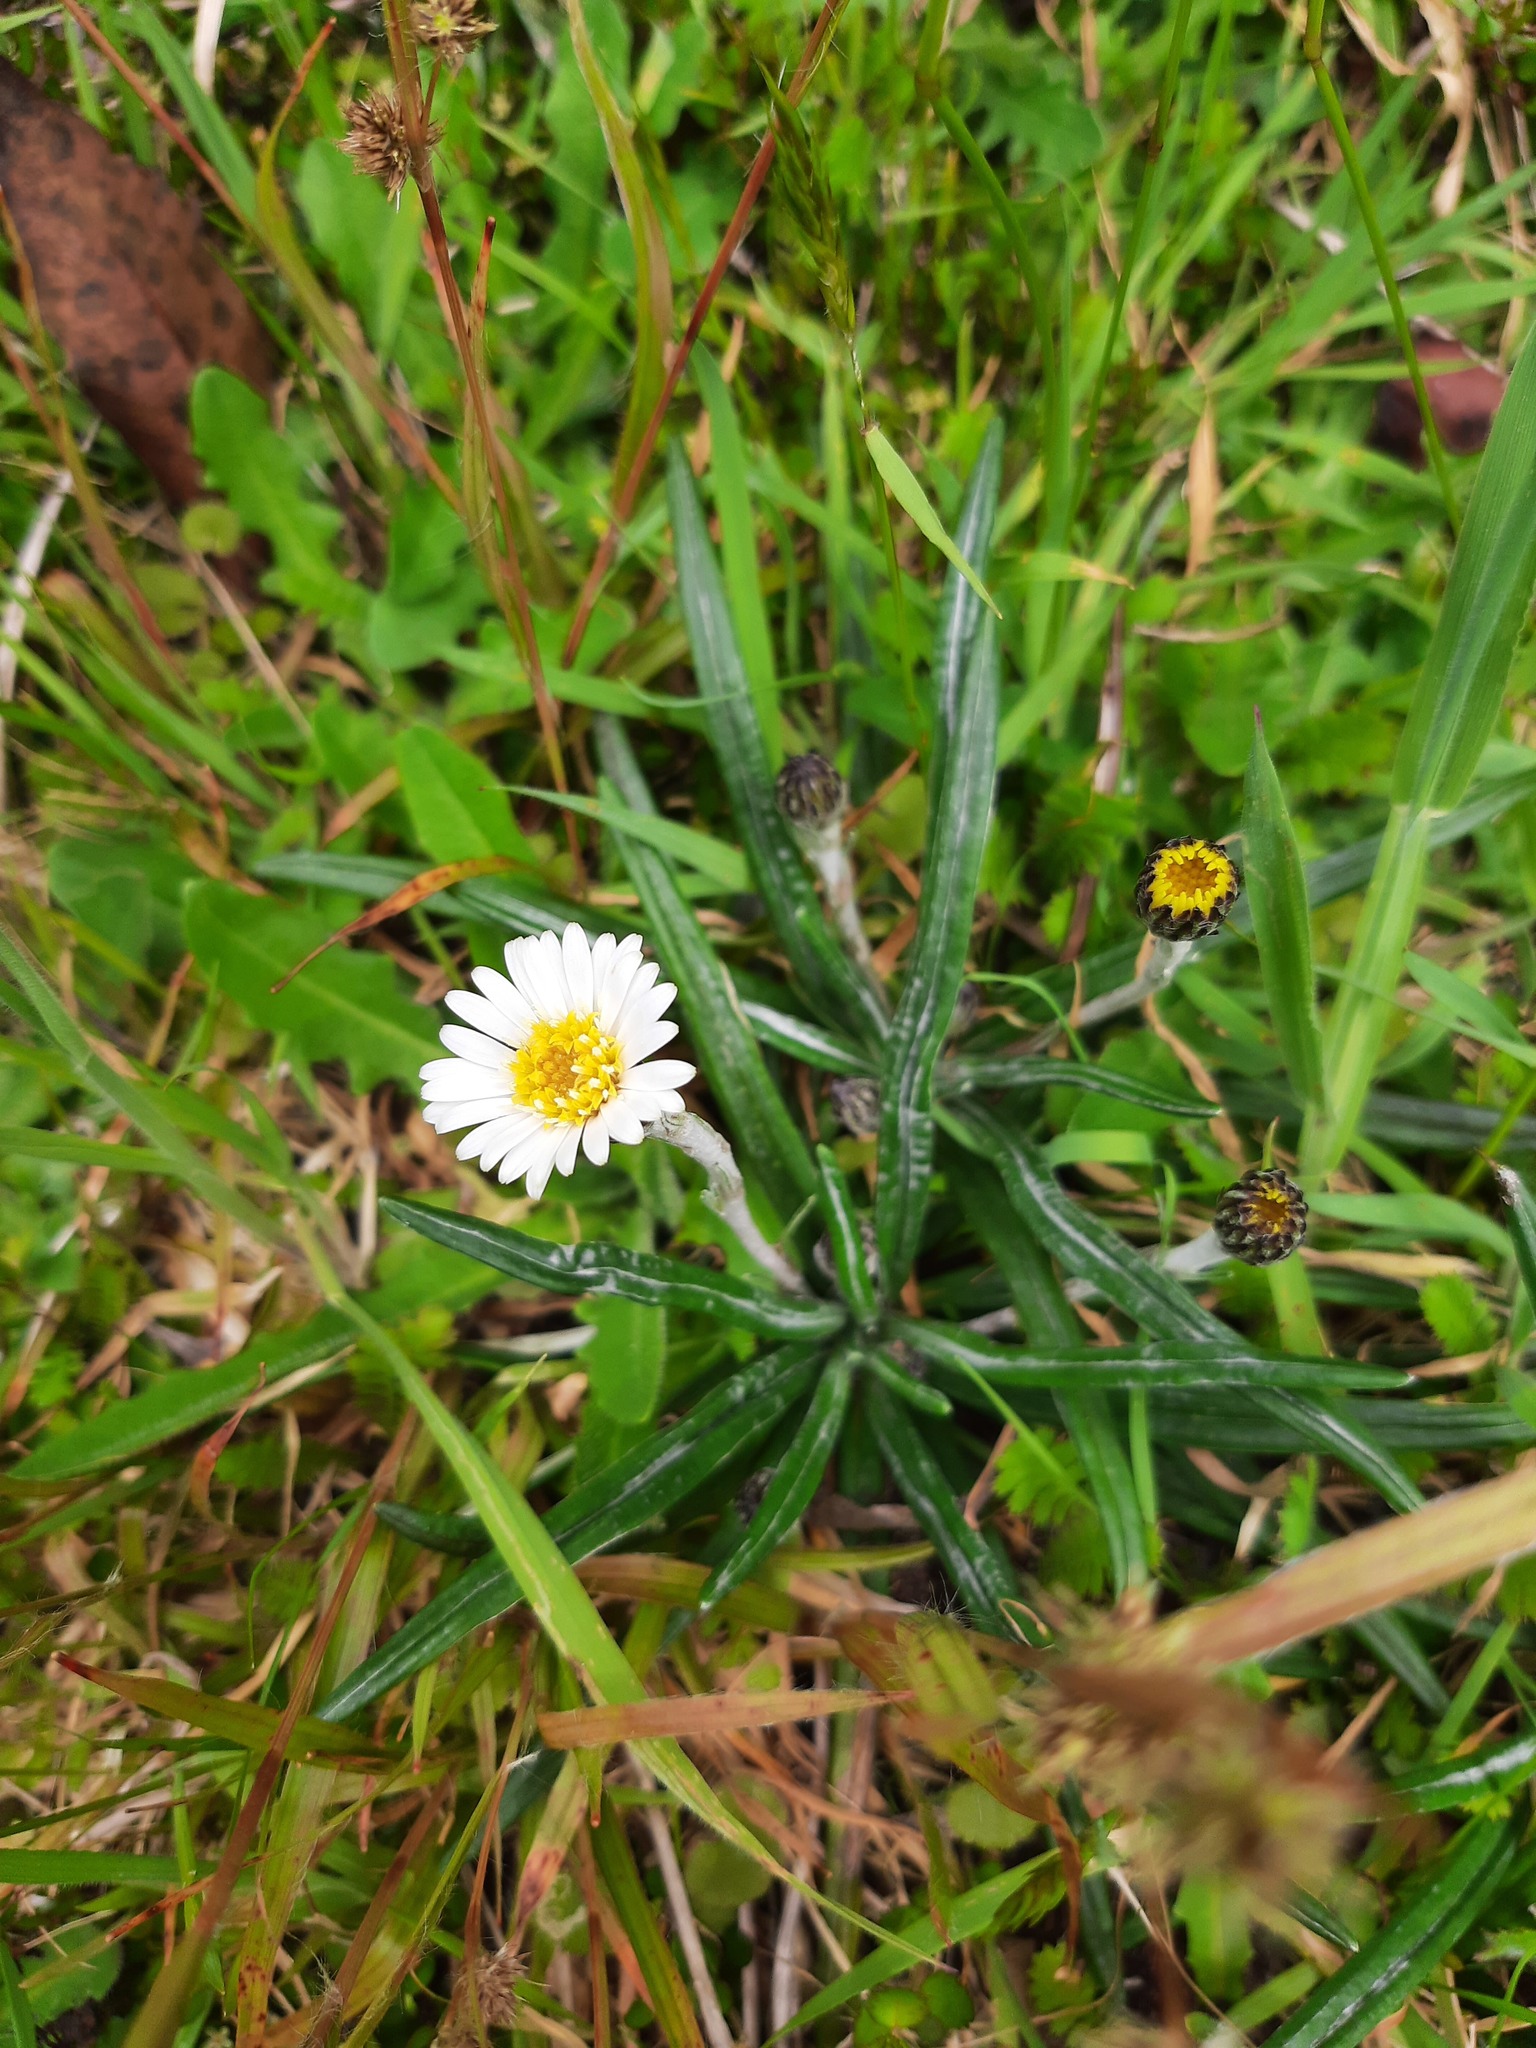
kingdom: Plantae
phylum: Tracheophyta
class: Magnoliopsida
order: Asterales
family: Asteraceae
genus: Celmisia
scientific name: Celmisia major
